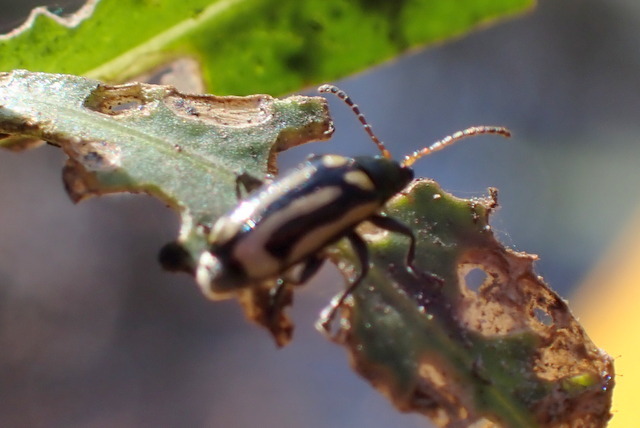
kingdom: Animalia
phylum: Arthropoda
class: Insecta
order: Coleoptera
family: Chrysomelidae
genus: Agasicles
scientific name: Agasicles hygrophila
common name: Alligatorweed flea beetle
